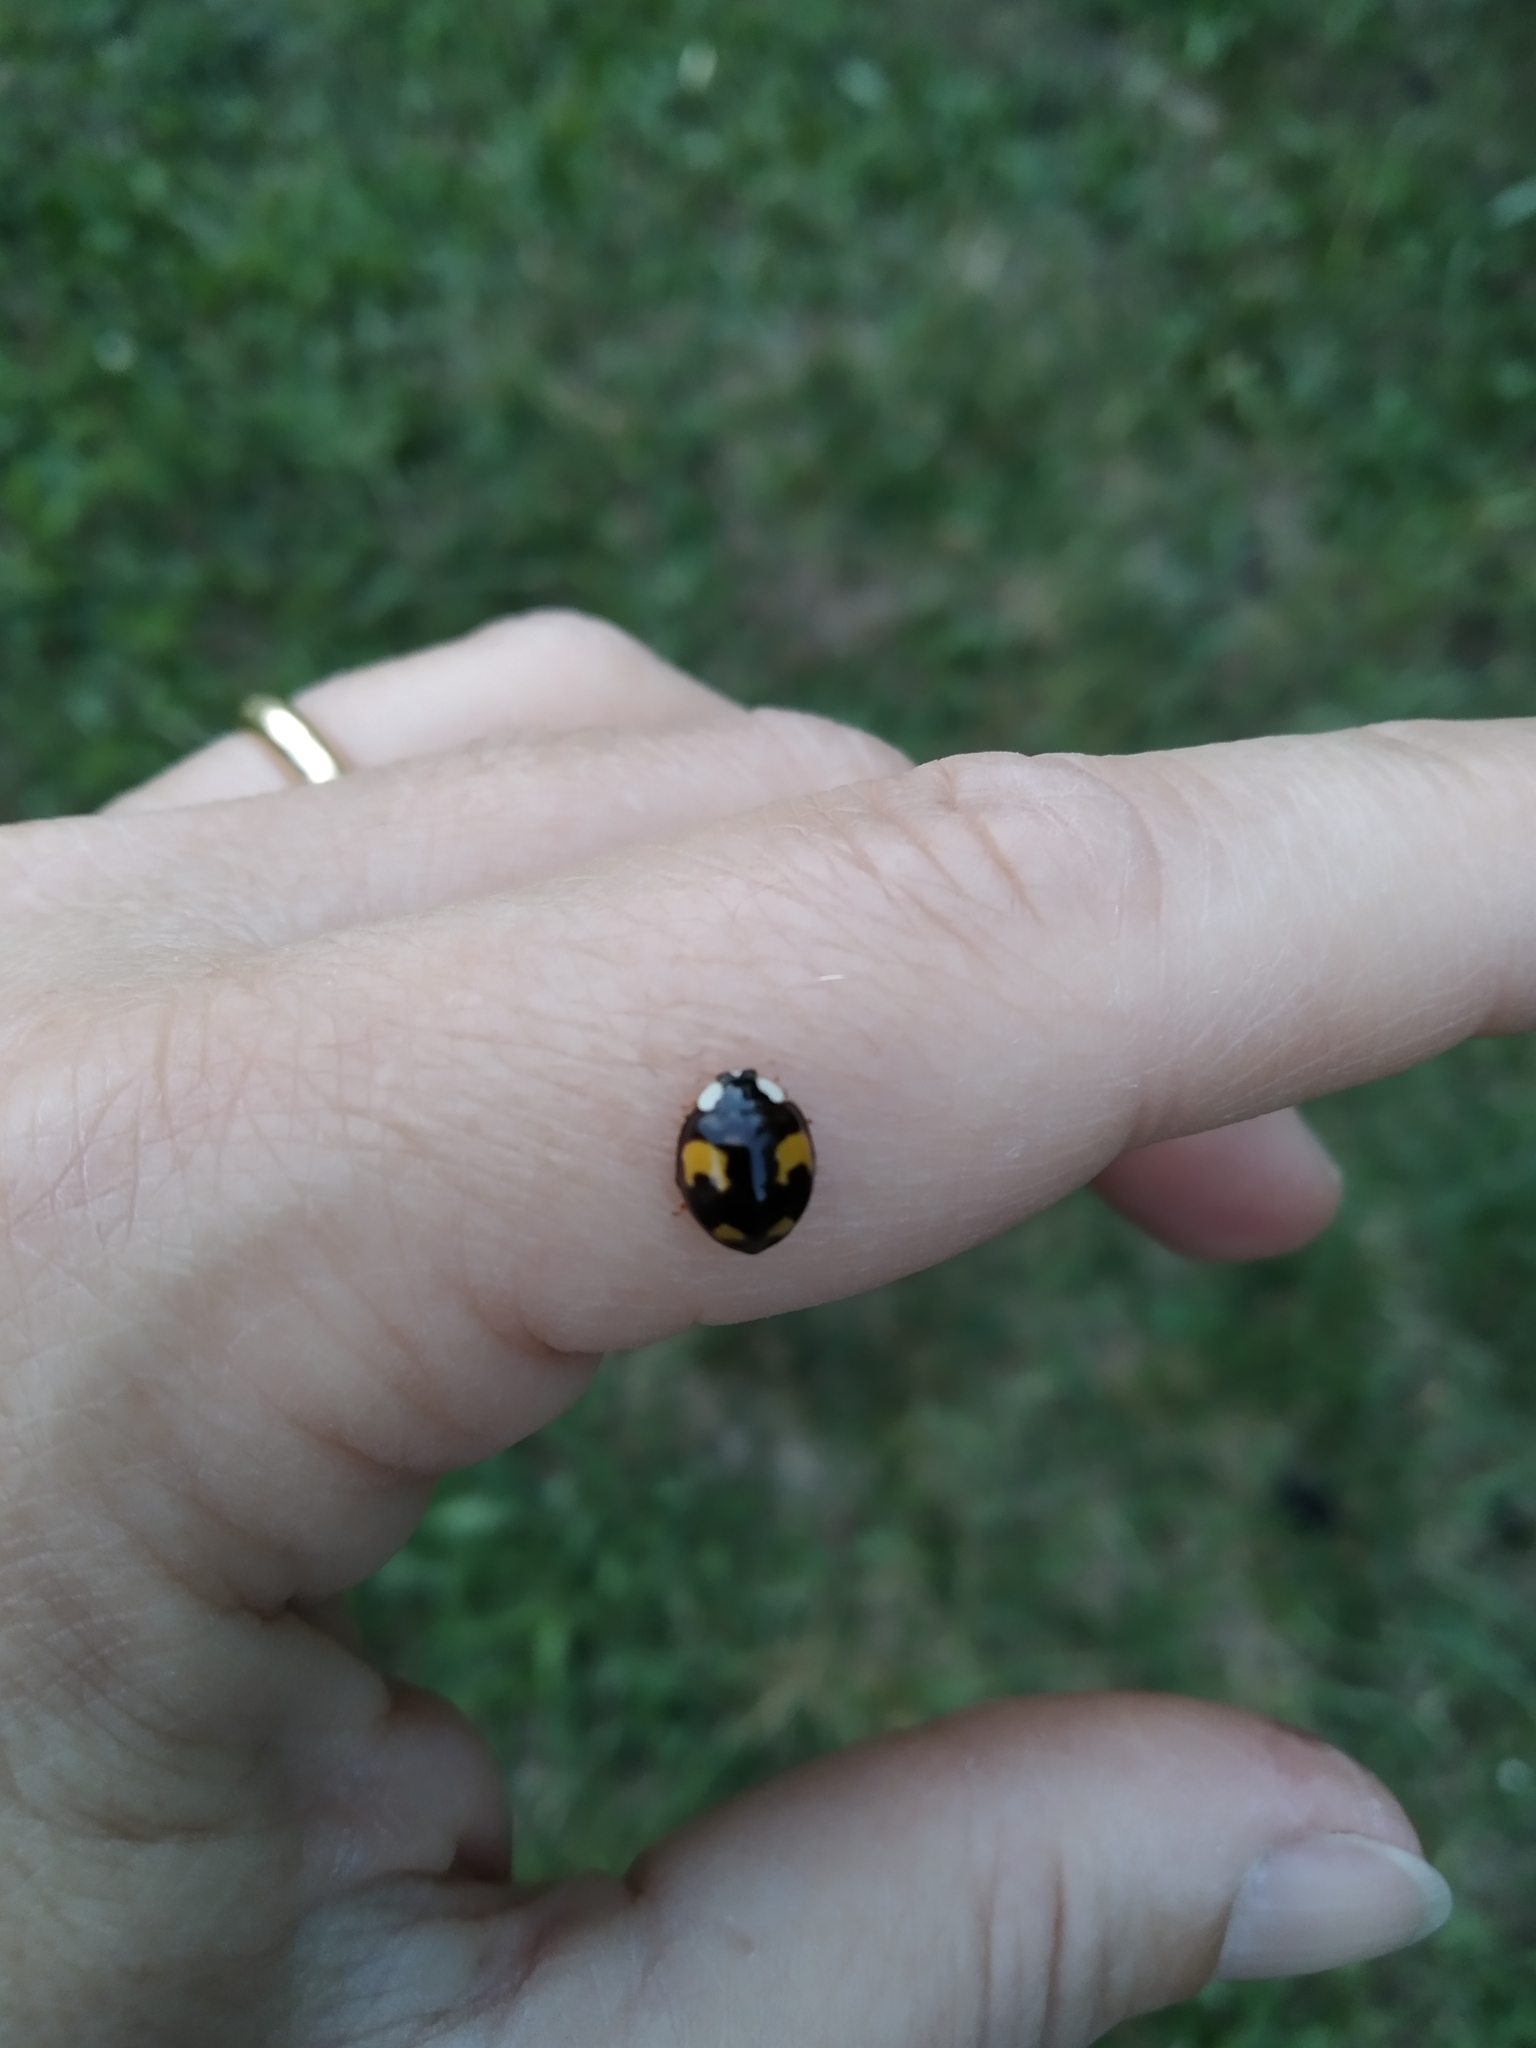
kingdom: Animalia
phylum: Arthropoda
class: Insecta
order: Coleoptera
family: Coccinellidae
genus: Harmonia
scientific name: Harmonia axyridis
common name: Harlequin ladybird
